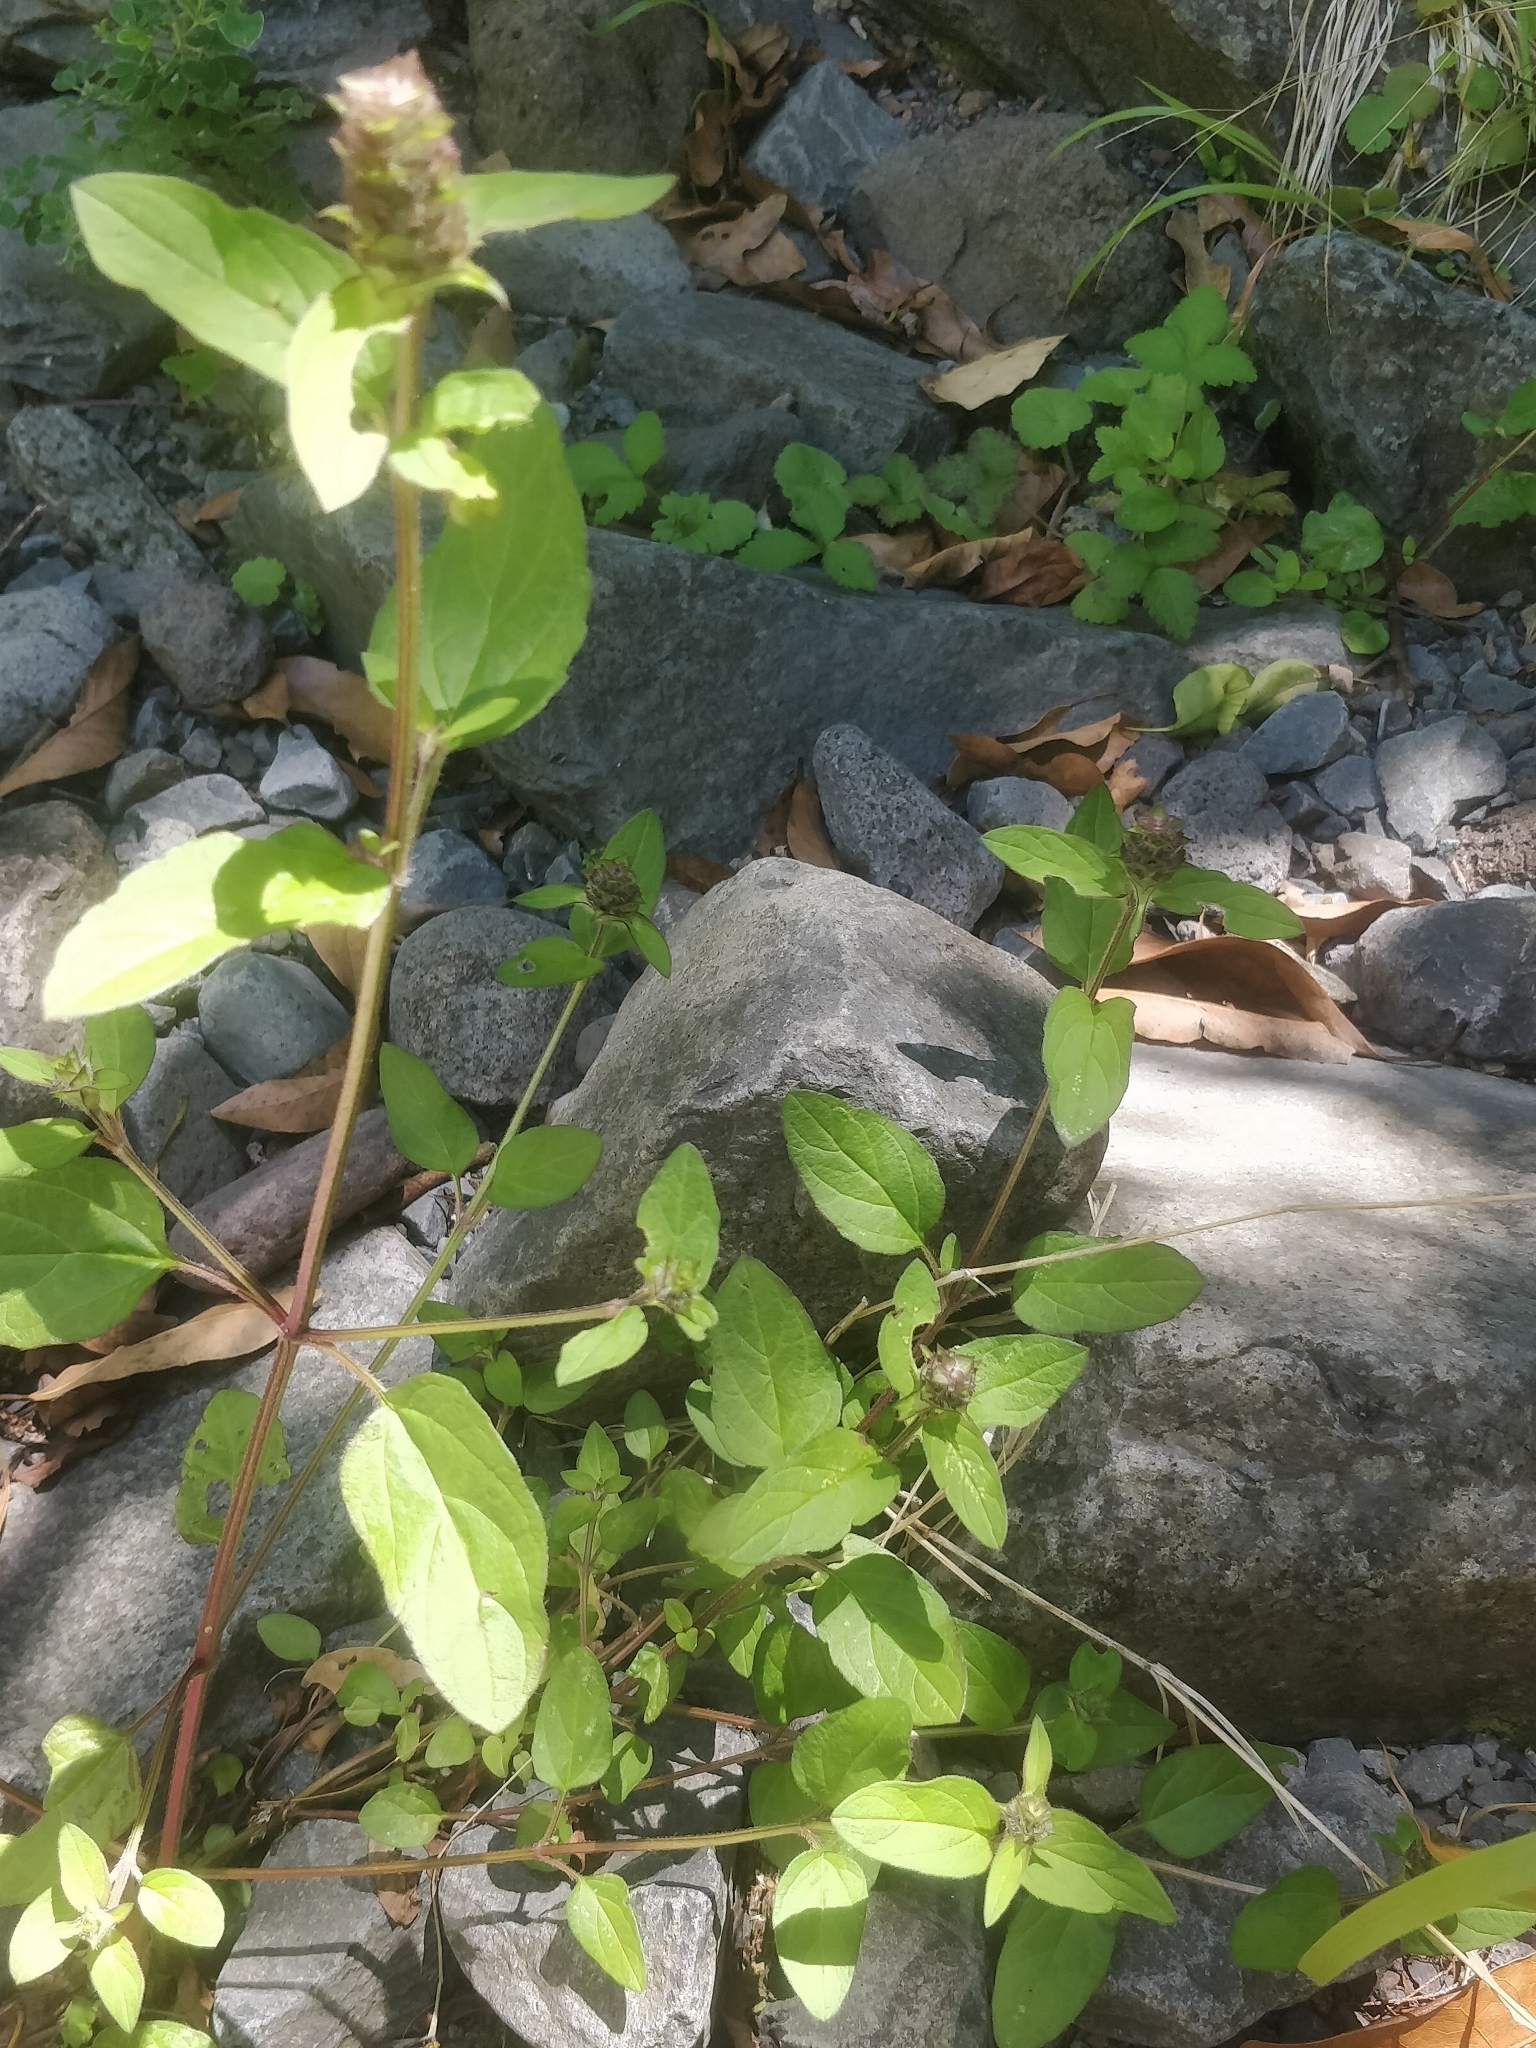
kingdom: Plantae
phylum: Tracheophyta
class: Magnoliopsida
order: Lamiales
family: Lamiaceae
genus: Prunella
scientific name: Prunella vulgaris
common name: Heal-all
